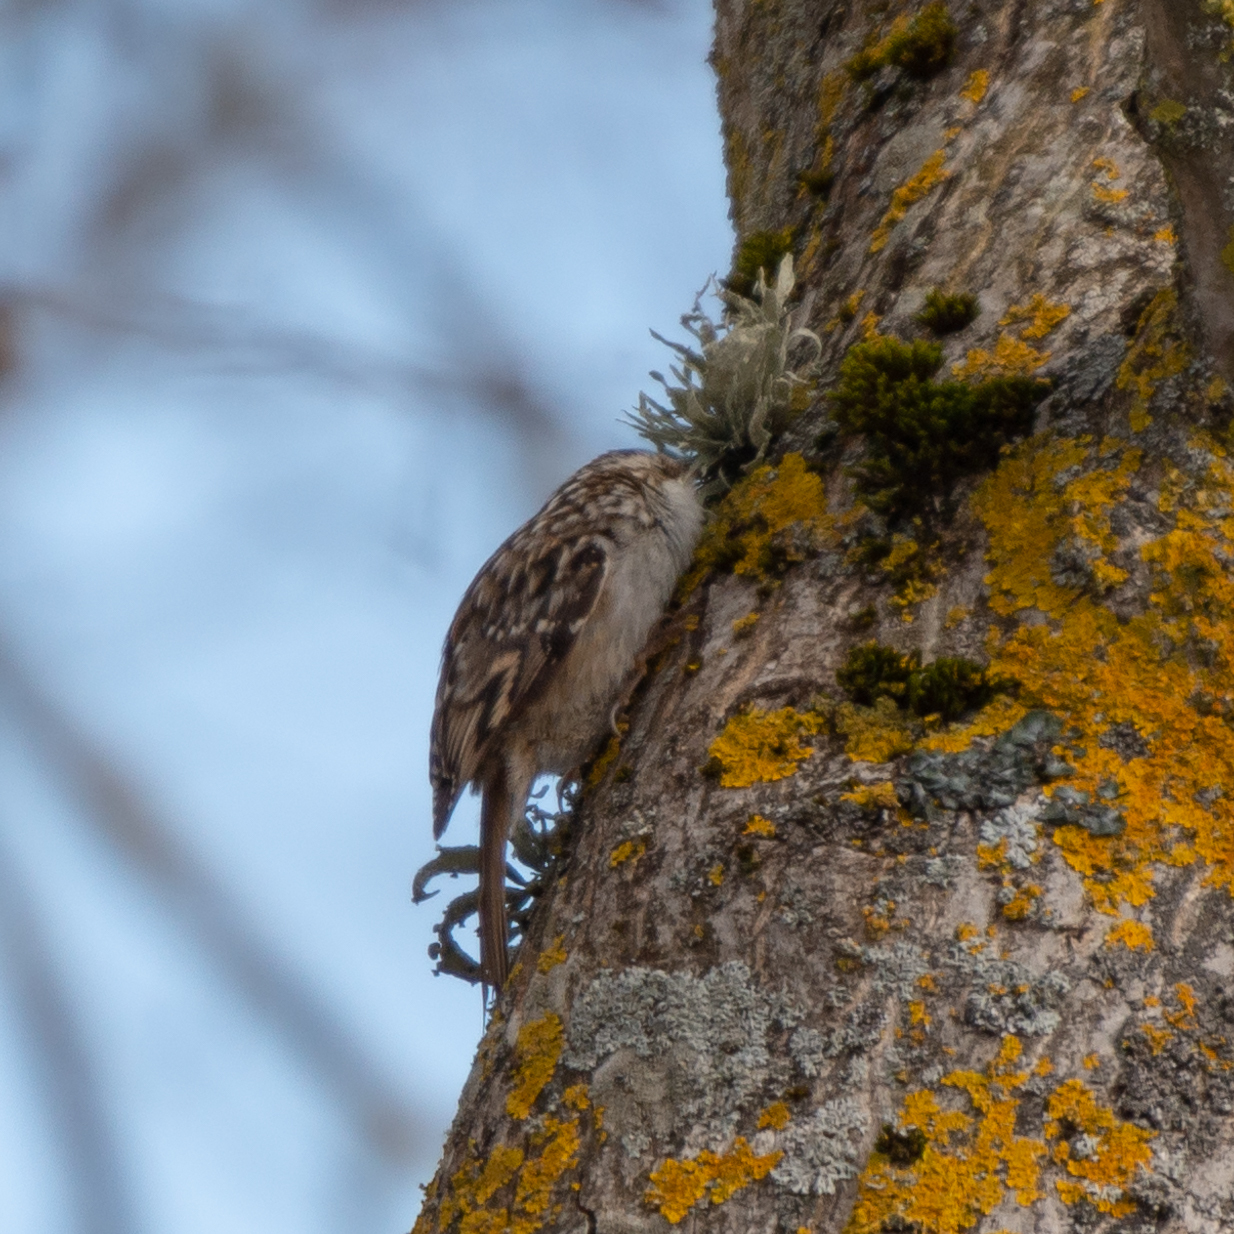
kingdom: Animalia
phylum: Chordata
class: Aves
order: Passeriformes
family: Certhiidae
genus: Certhia
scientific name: Certhia brachydactyla
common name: Short-toed treecreeper
